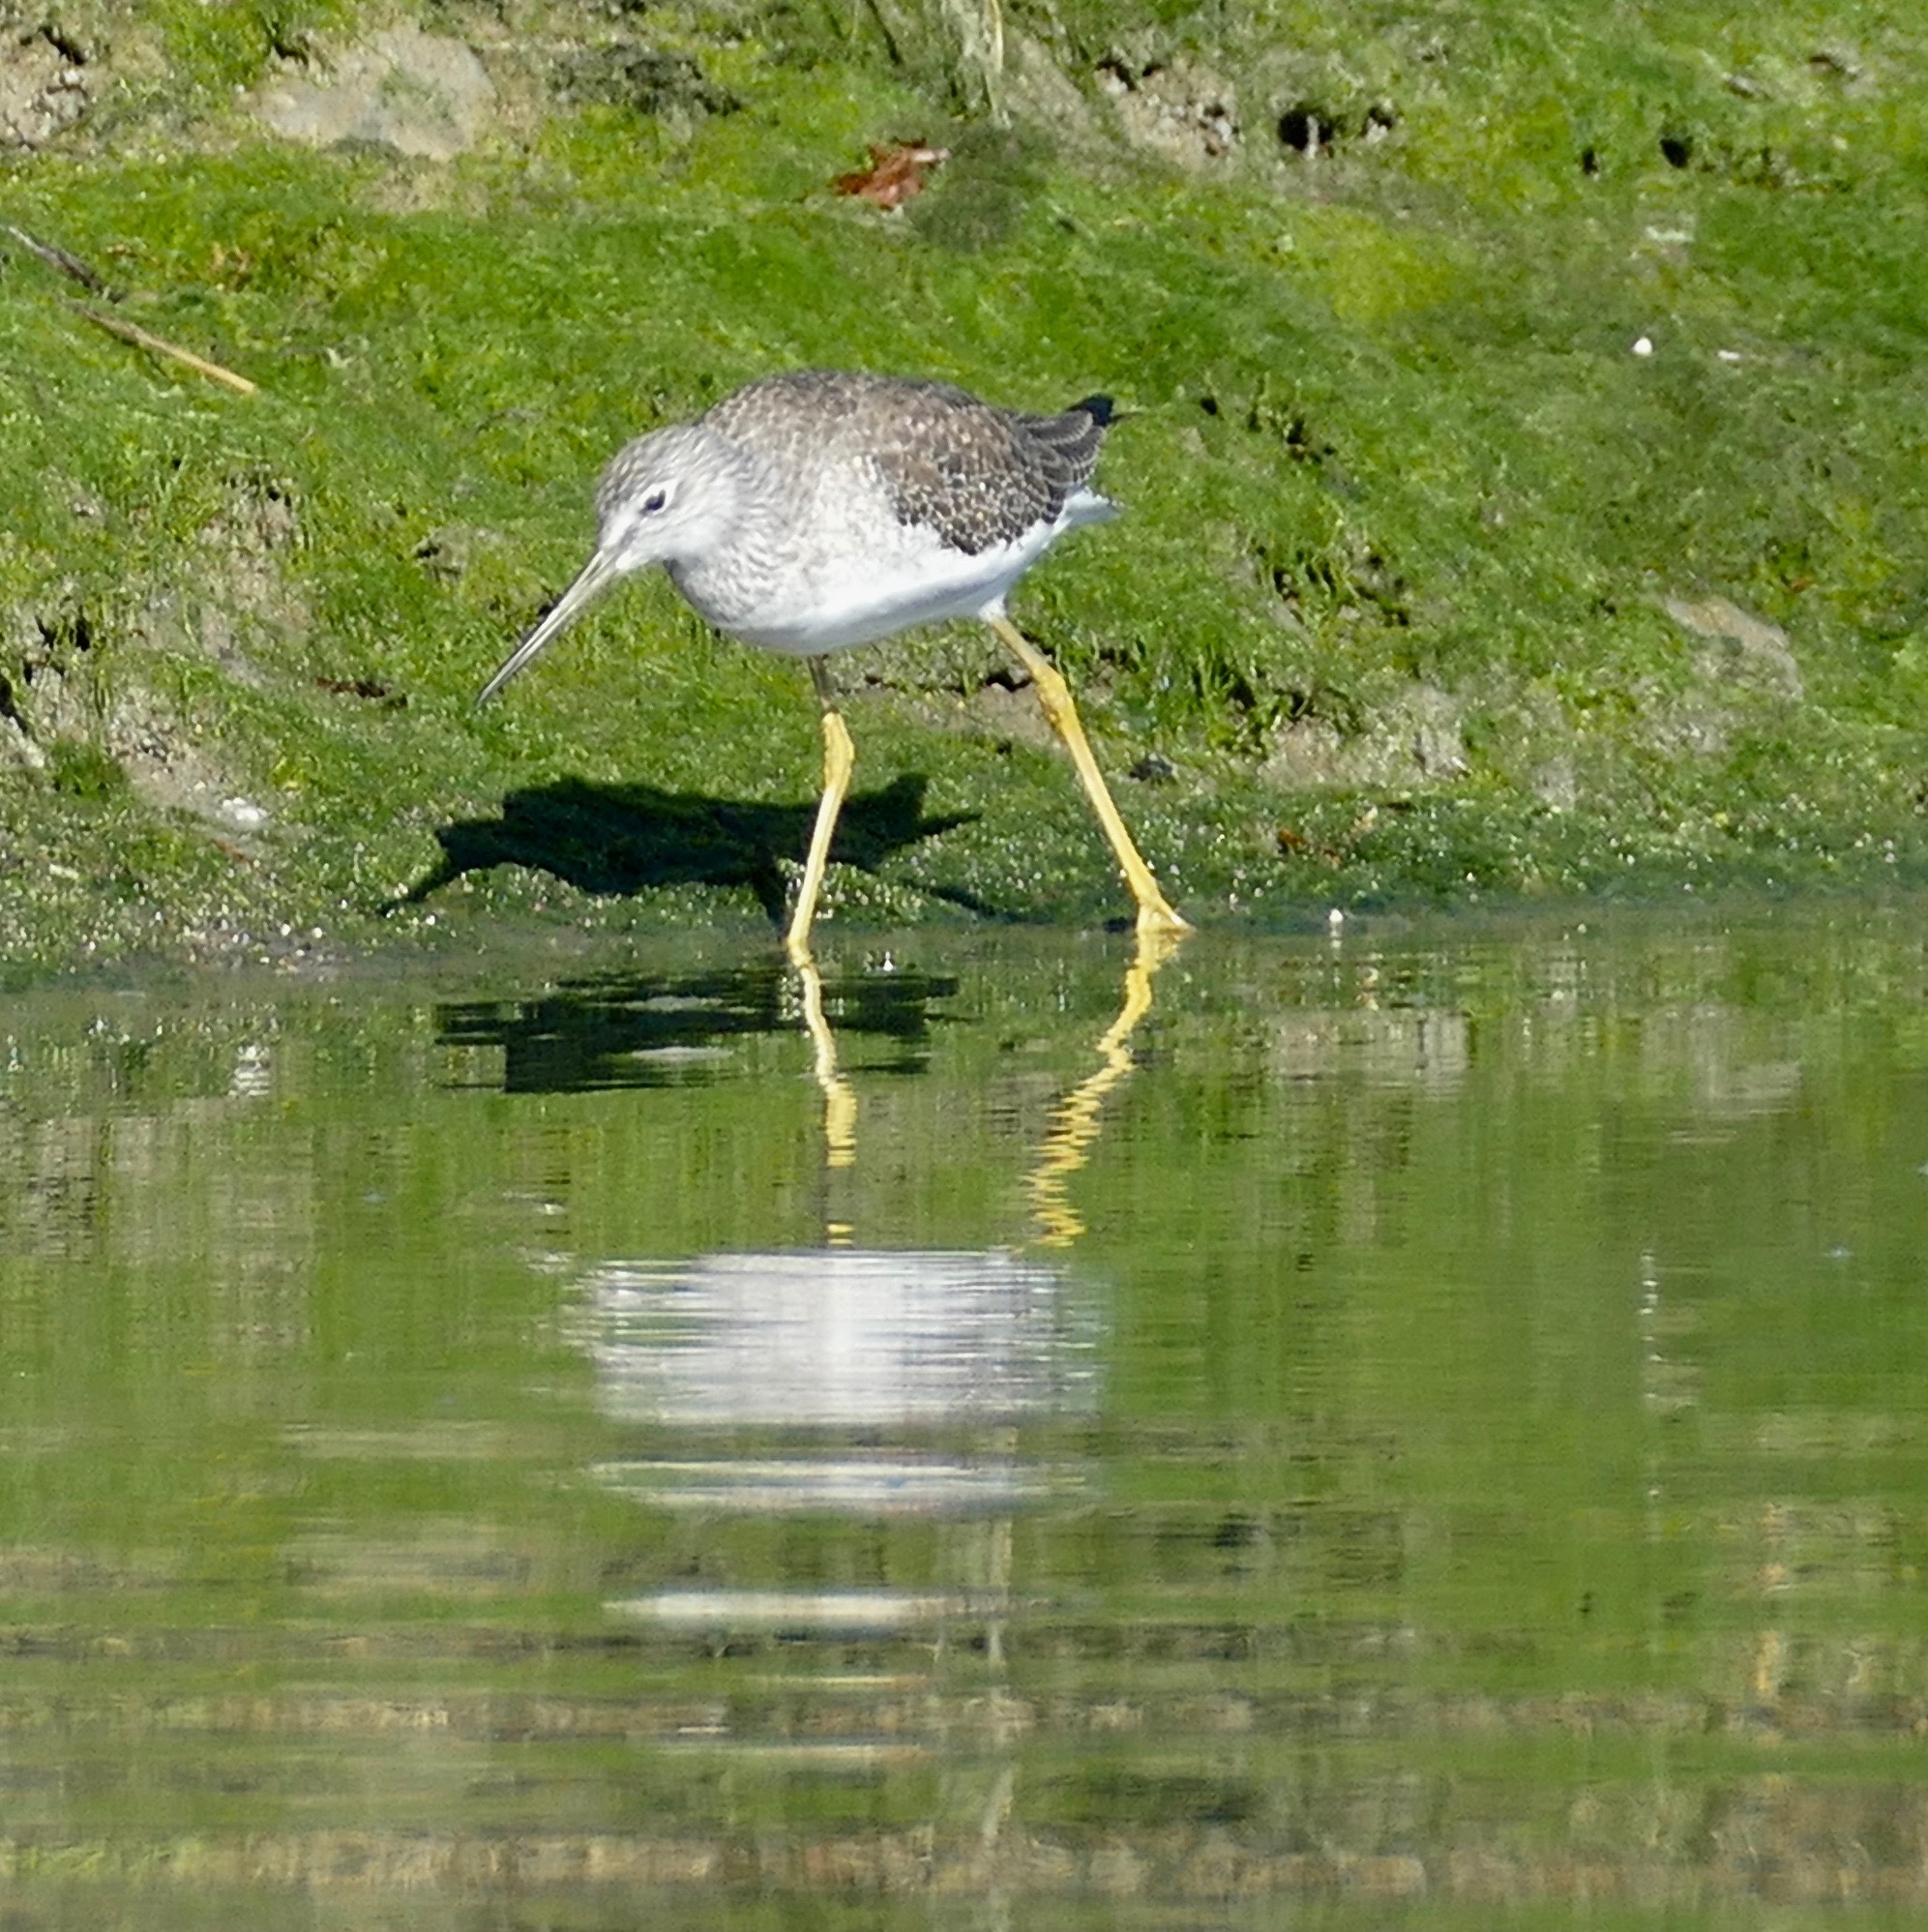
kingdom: Animalia
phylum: Chordata
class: Aves
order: Charadriiformes
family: Scolopacidae
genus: Tringa
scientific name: Tringa melanoleuca
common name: Greater yellowlegs
